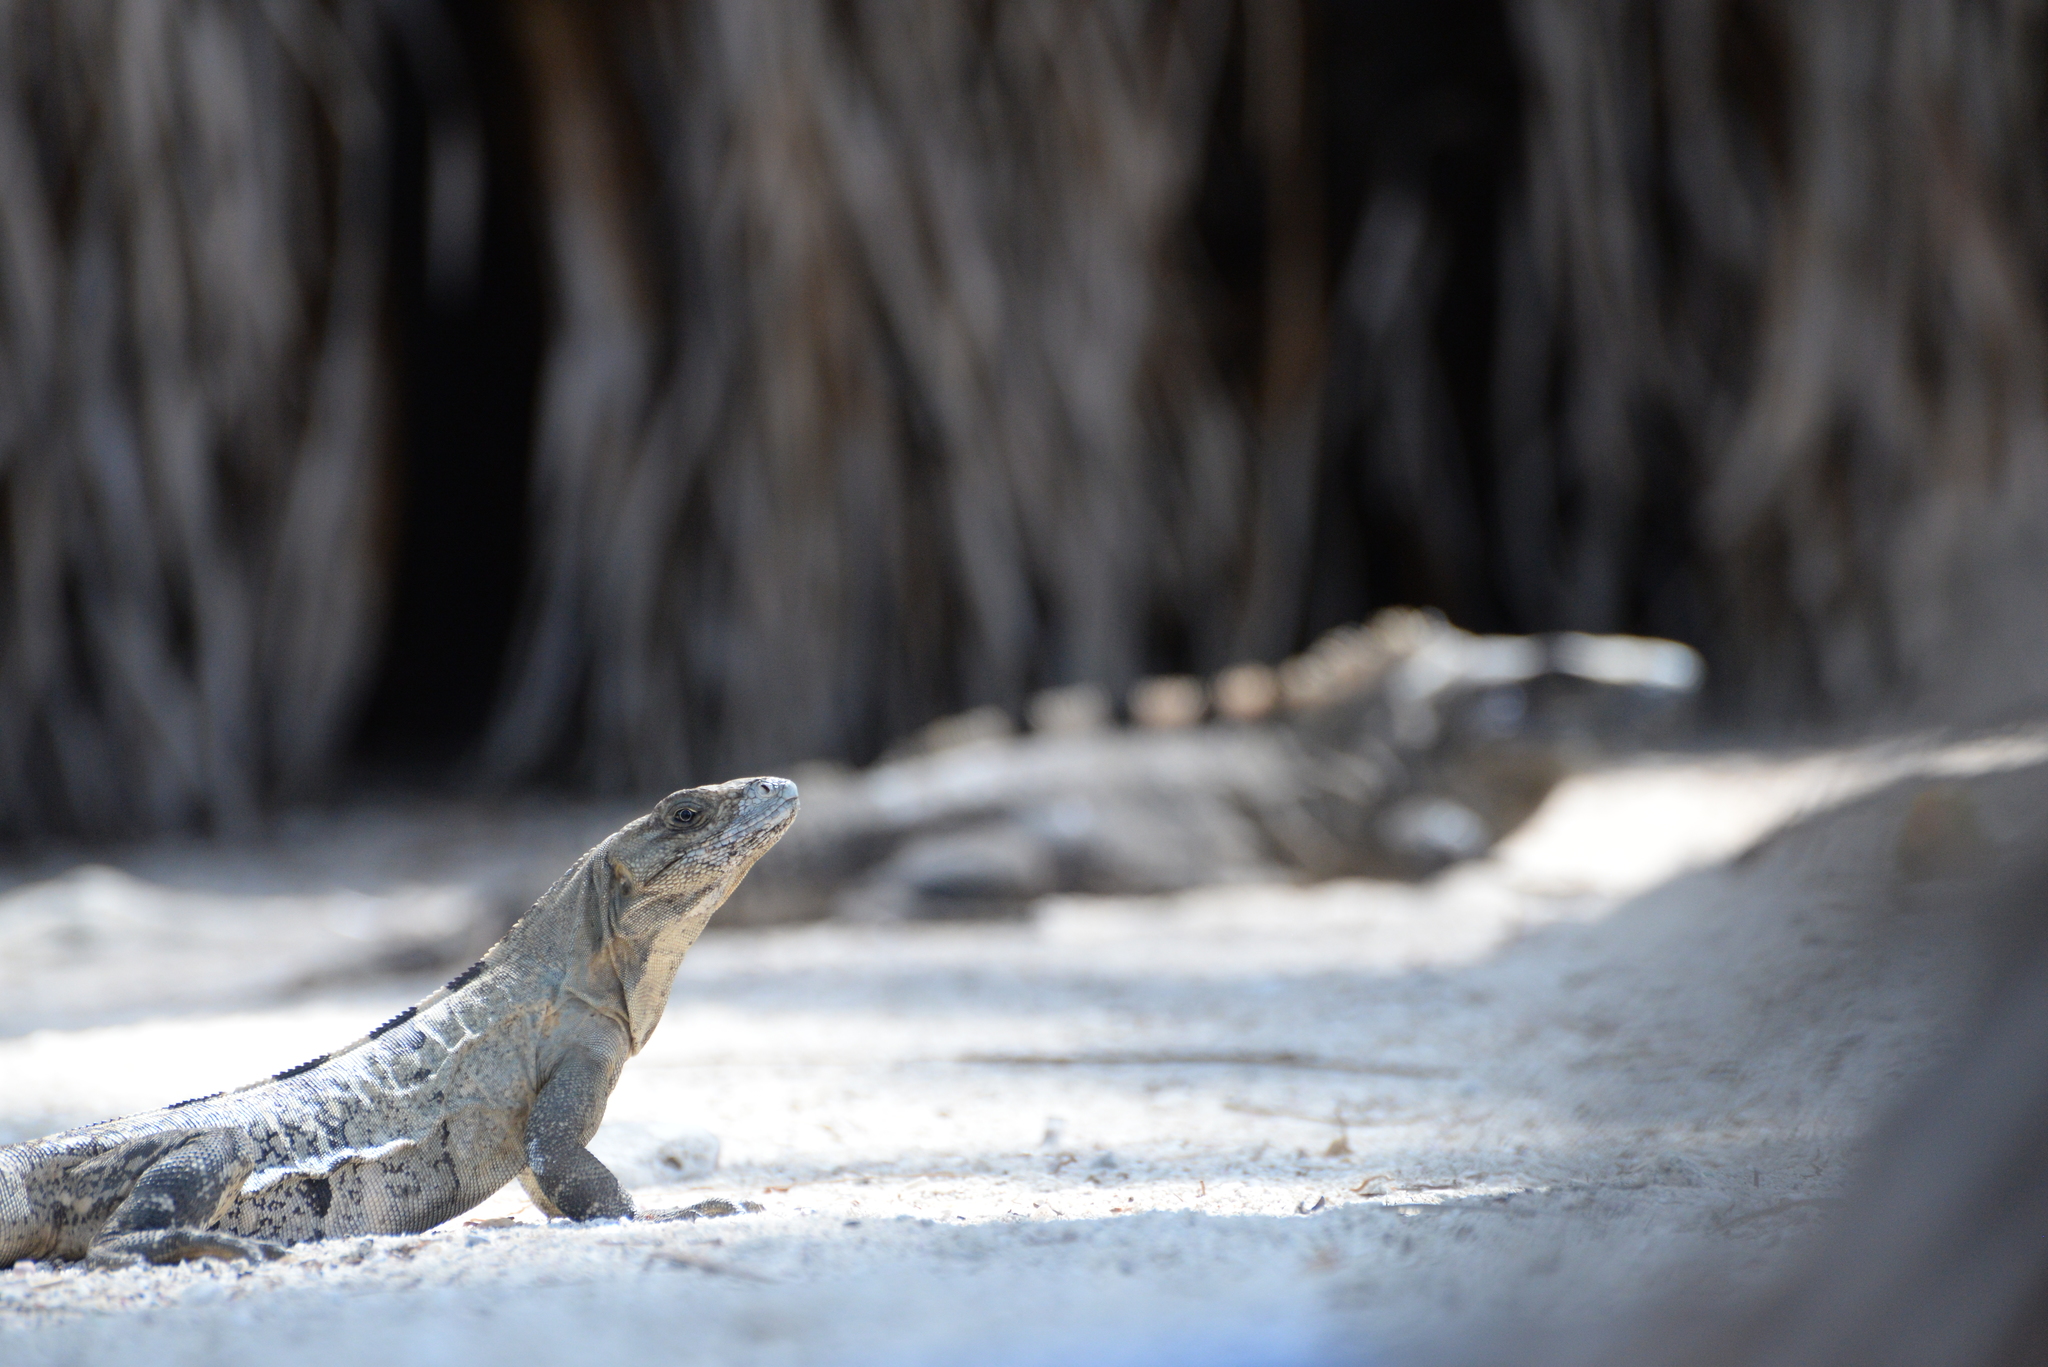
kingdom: Animalia
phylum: Chordata
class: Squamata
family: Iguanidae
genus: Ctenosaura
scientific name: Ctenosaura similis
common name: Black spiny-tailed iguana
